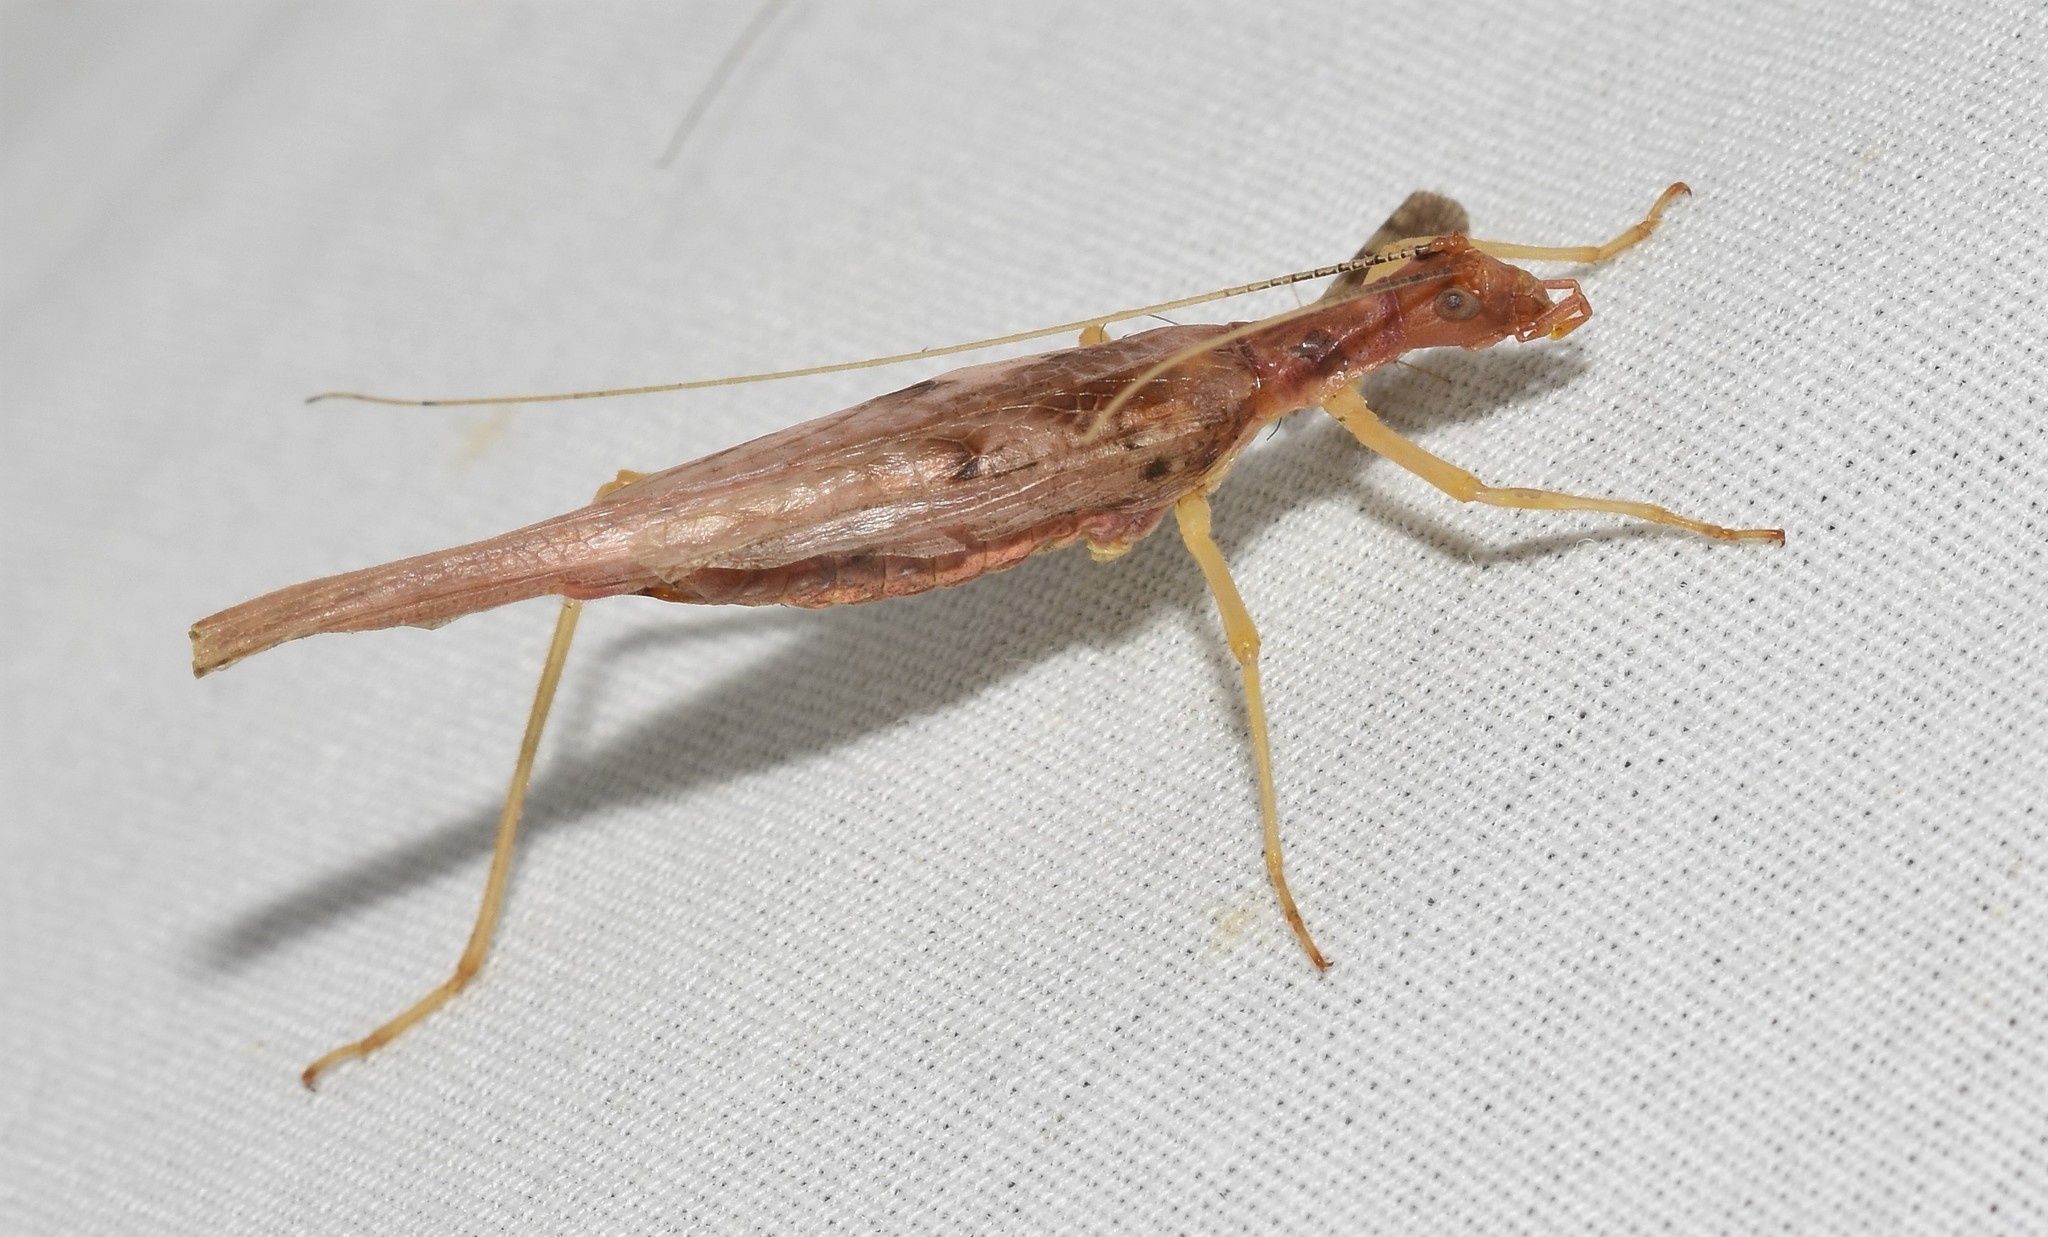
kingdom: Animalia
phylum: Arthropoda
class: Insecta
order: Orthoptera
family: Gryllidae
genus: Neoxabea
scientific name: Neoxabea bipunctata
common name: Two-spotted tree cricket
